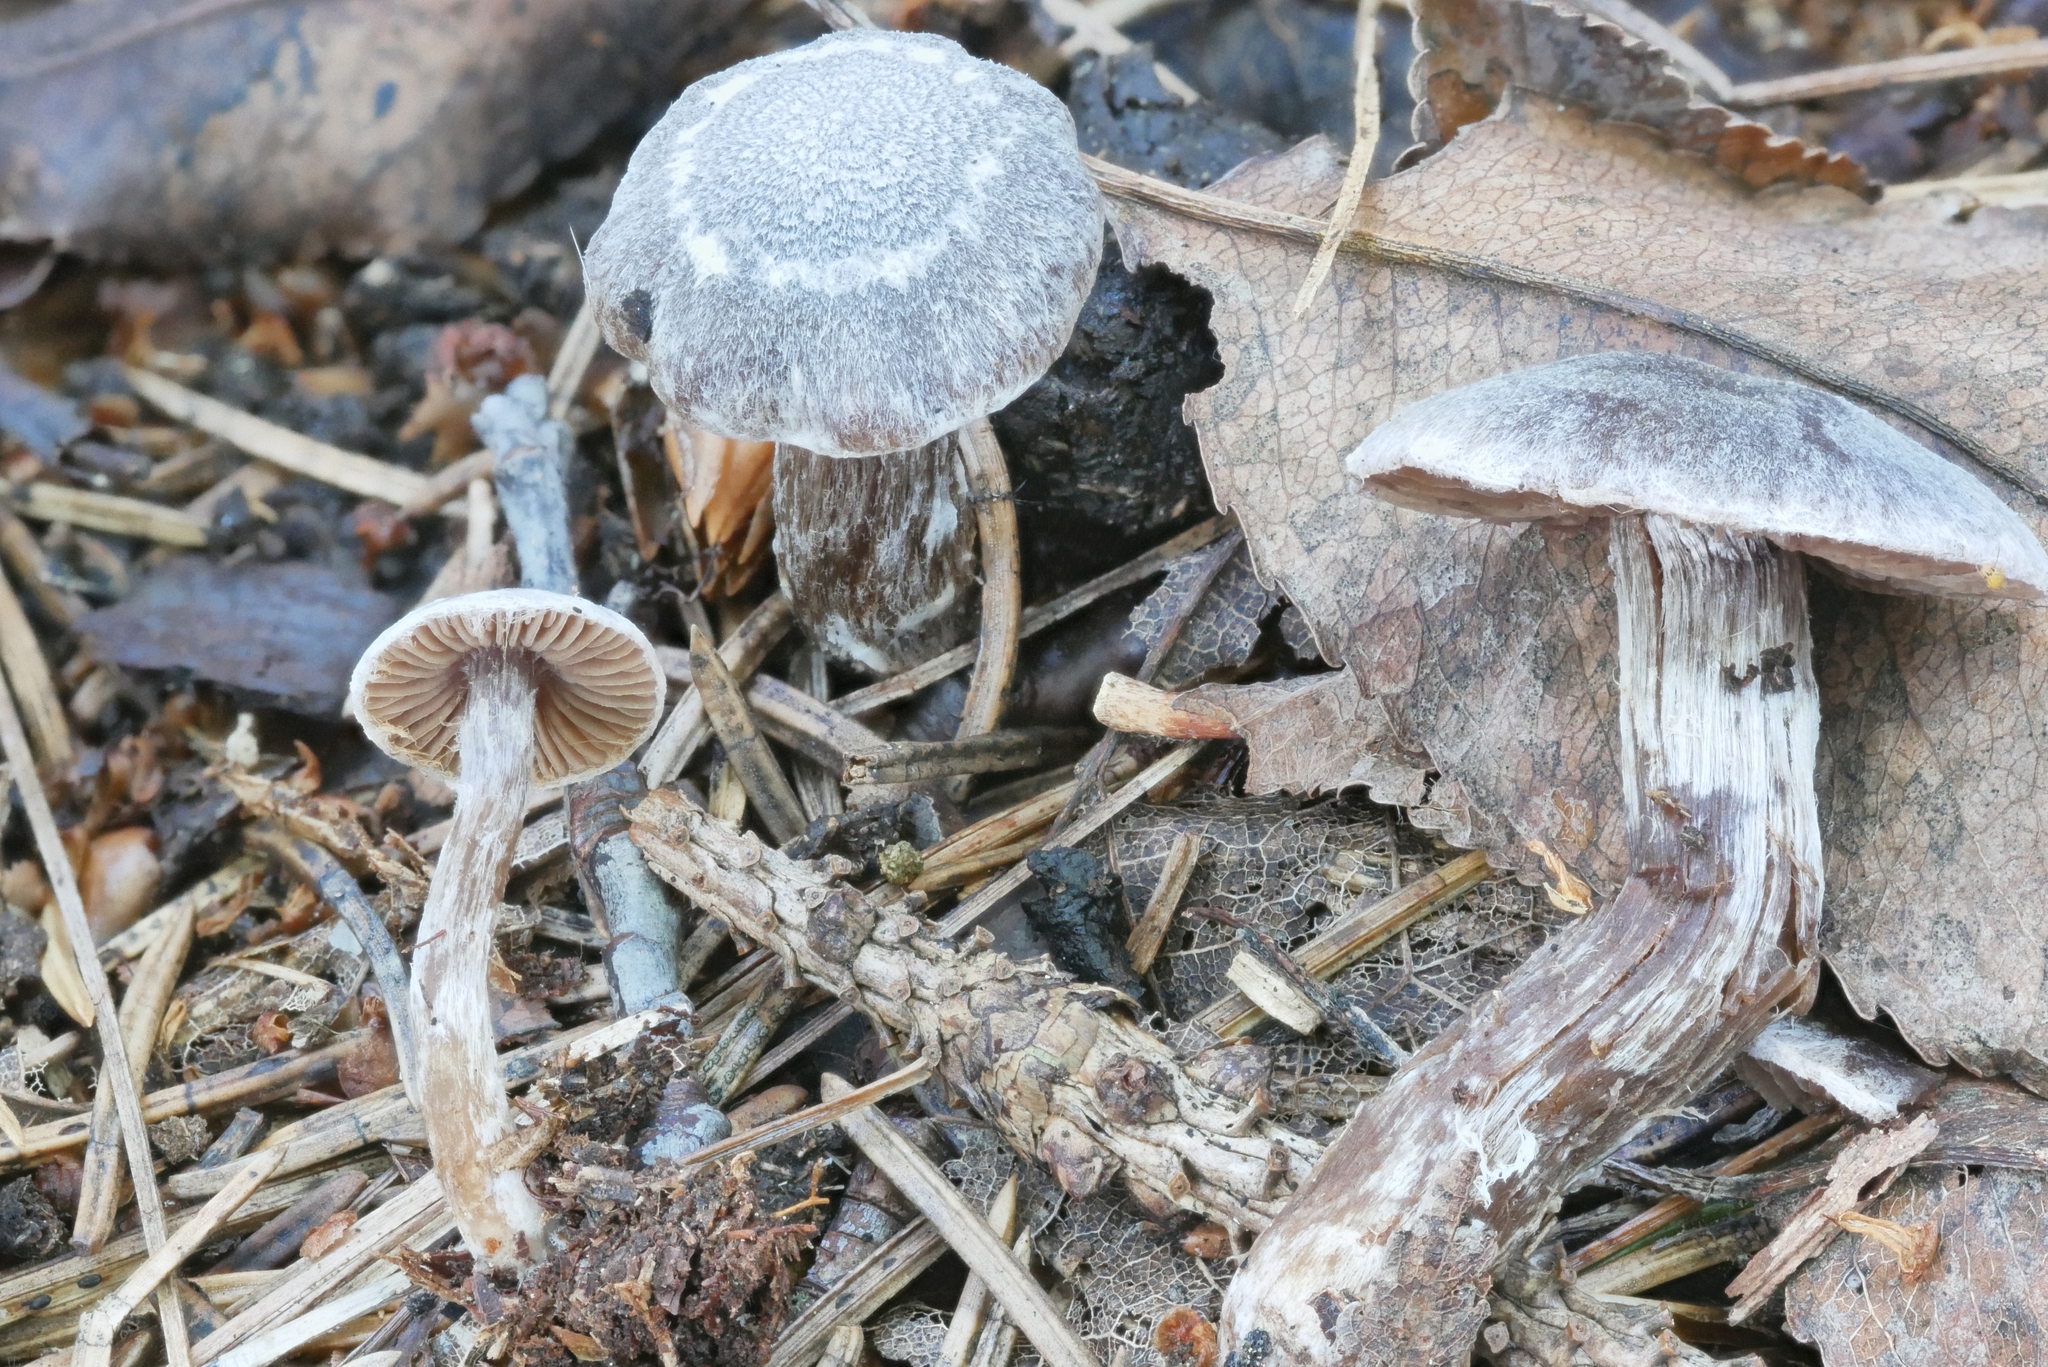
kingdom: Fungi
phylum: Basidiomycota
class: Agaricomycetes
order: Agaricales
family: Cortinariaceae
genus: Cortinarius
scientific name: Cortinarius flabellus
